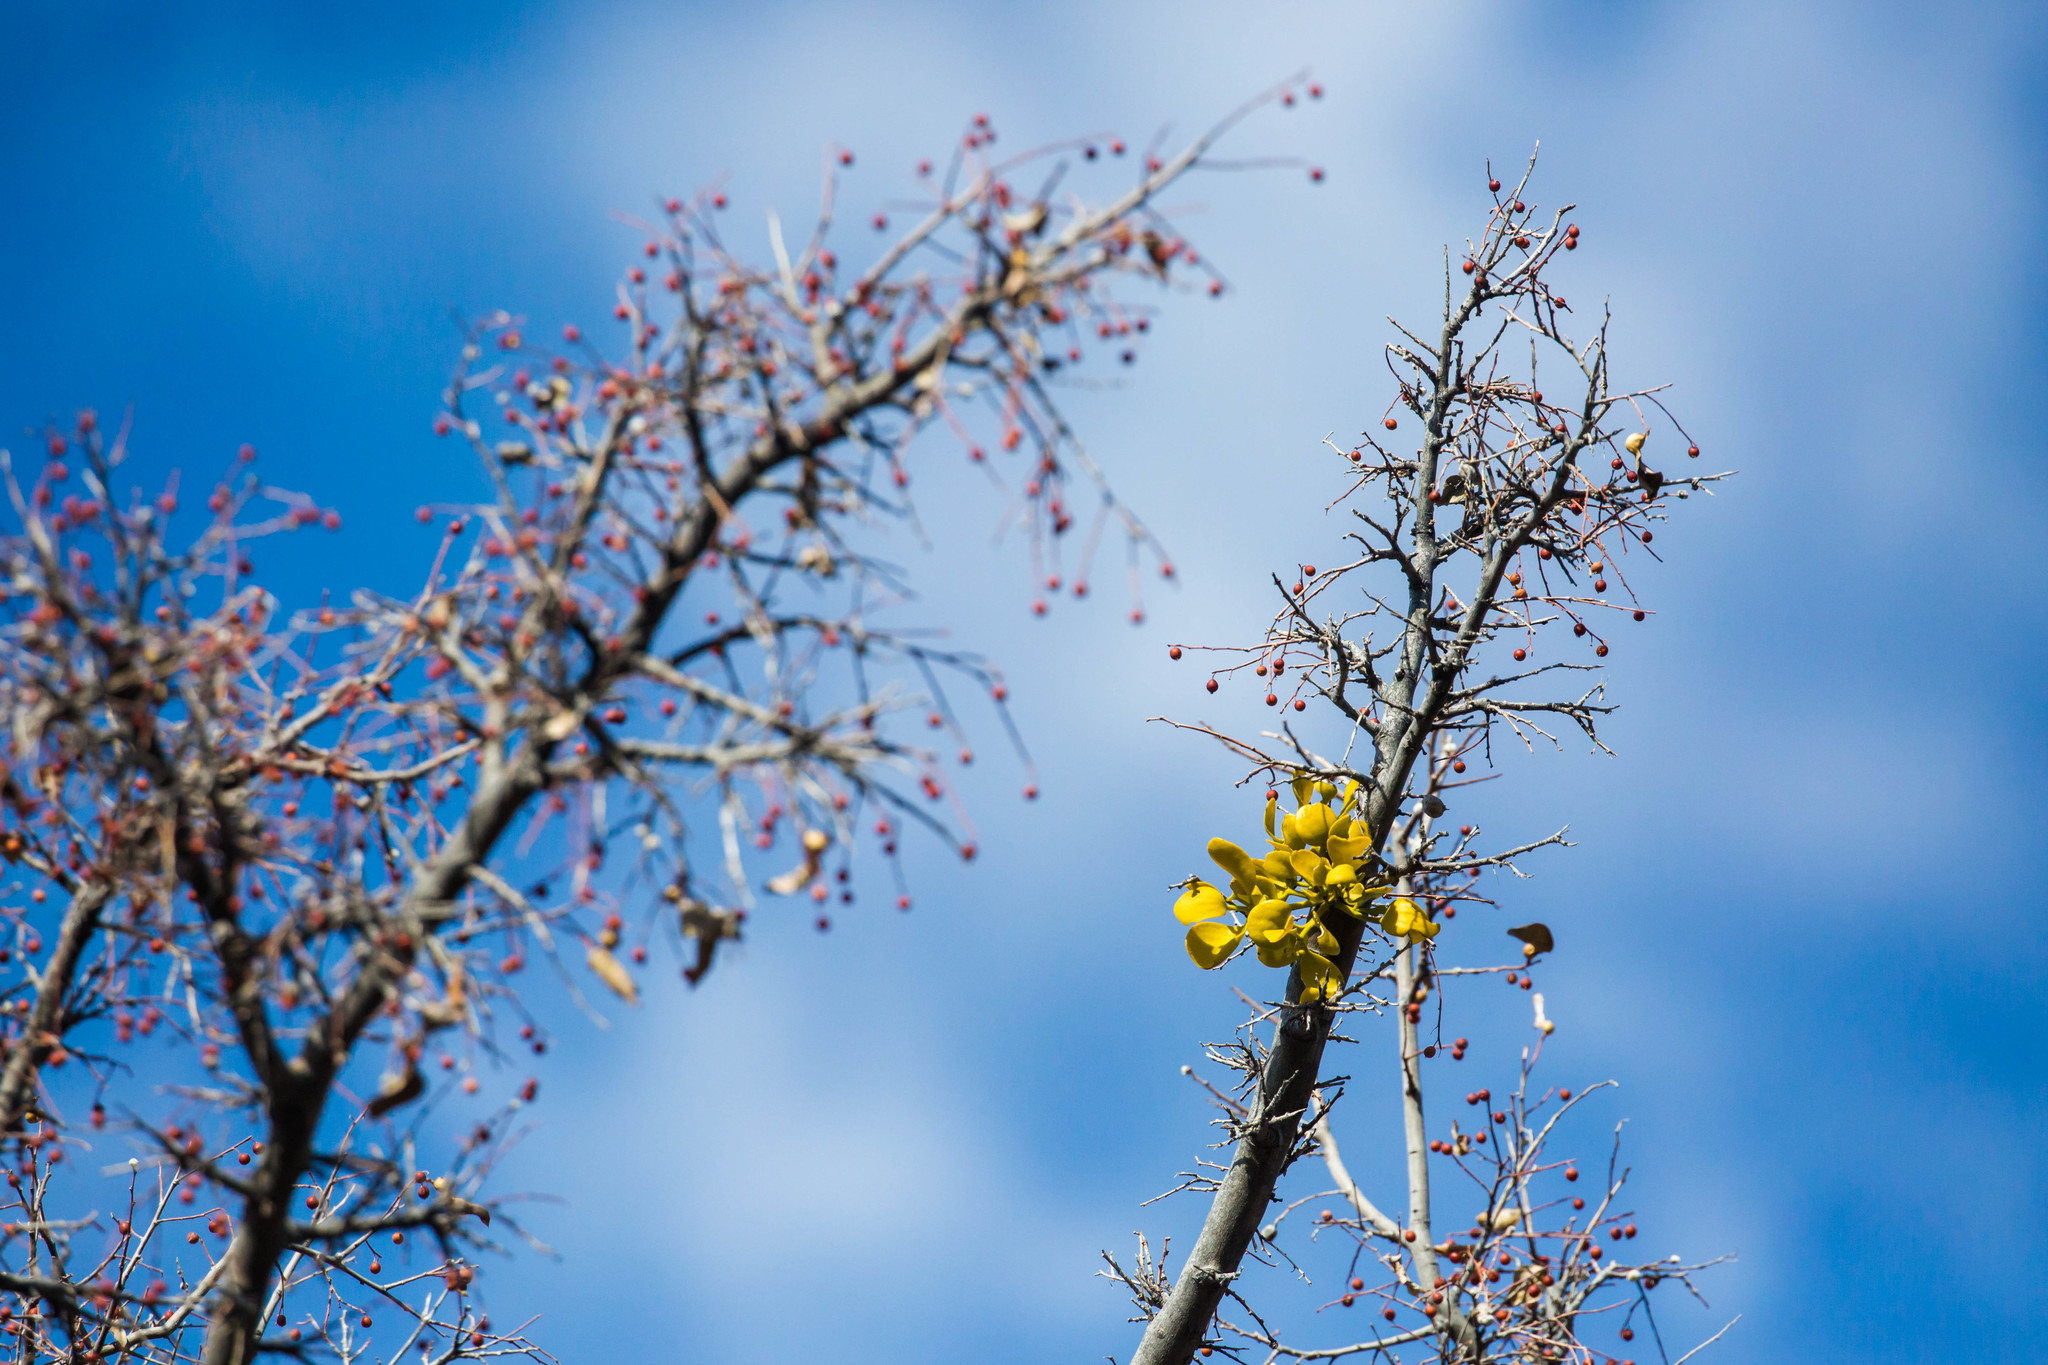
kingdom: Plantae
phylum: Tracheophyta
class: Magnoliopsida
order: Rosales
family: Cannabaceae
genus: Celtis
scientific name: Celtis reticulata
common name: Netleaf hackberry
